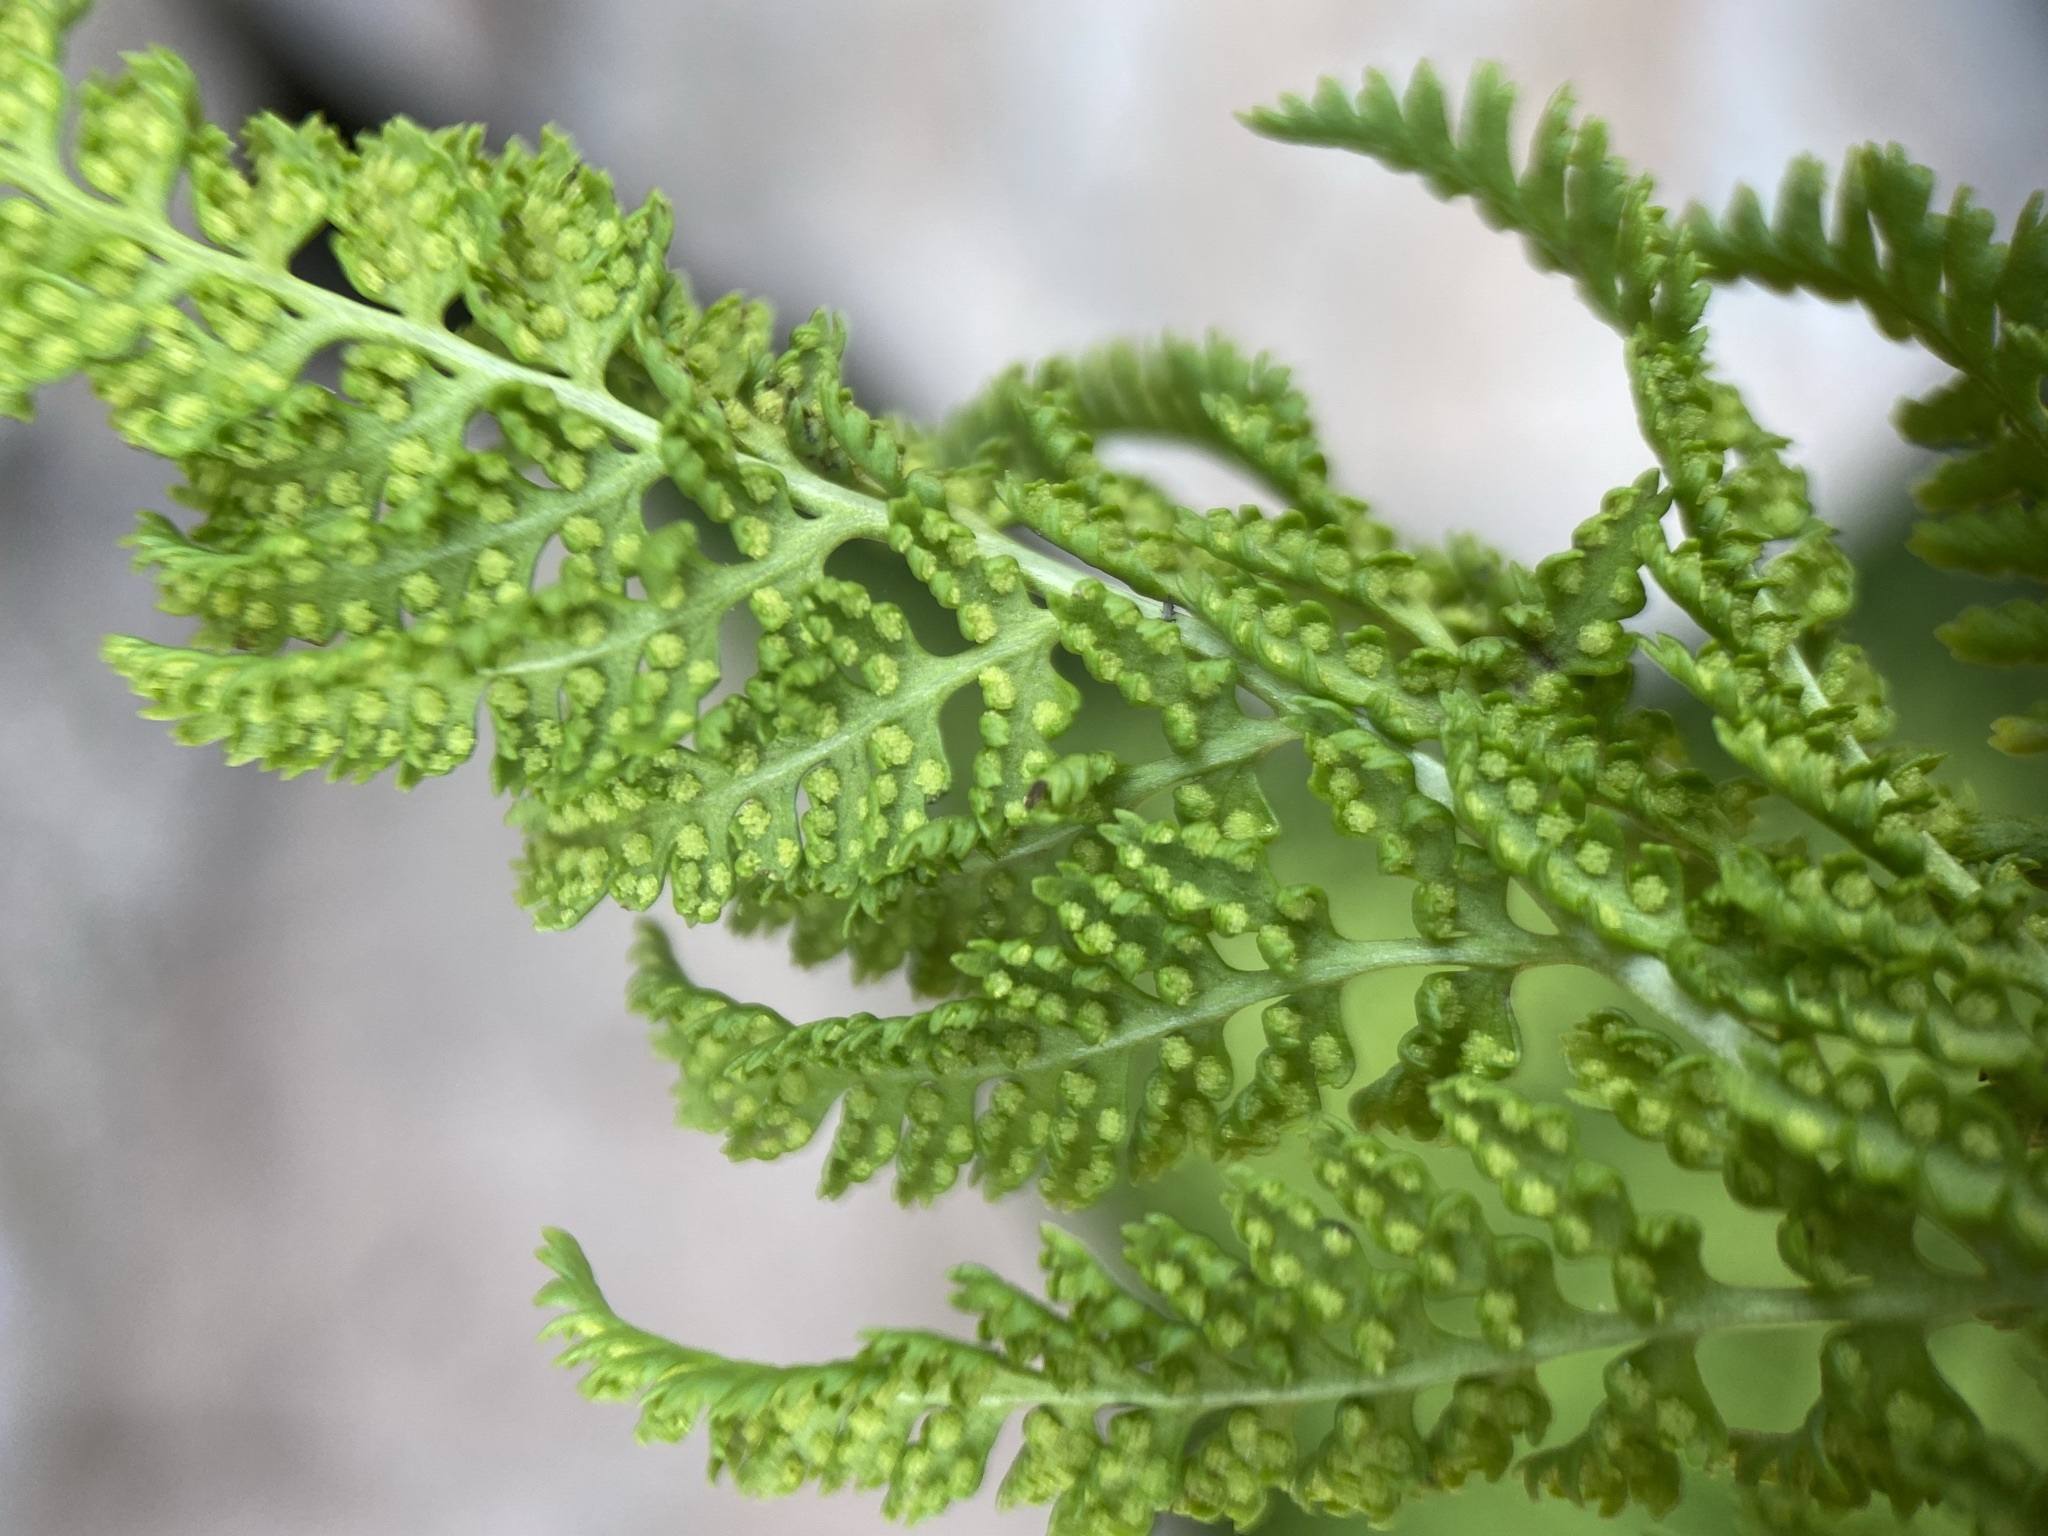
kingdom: Plantae
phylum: Tracheophyta
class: Polypodiopsida
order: Polypodiales
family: Athyriaceae
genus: Athyrium
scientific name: Athyrium americanum
